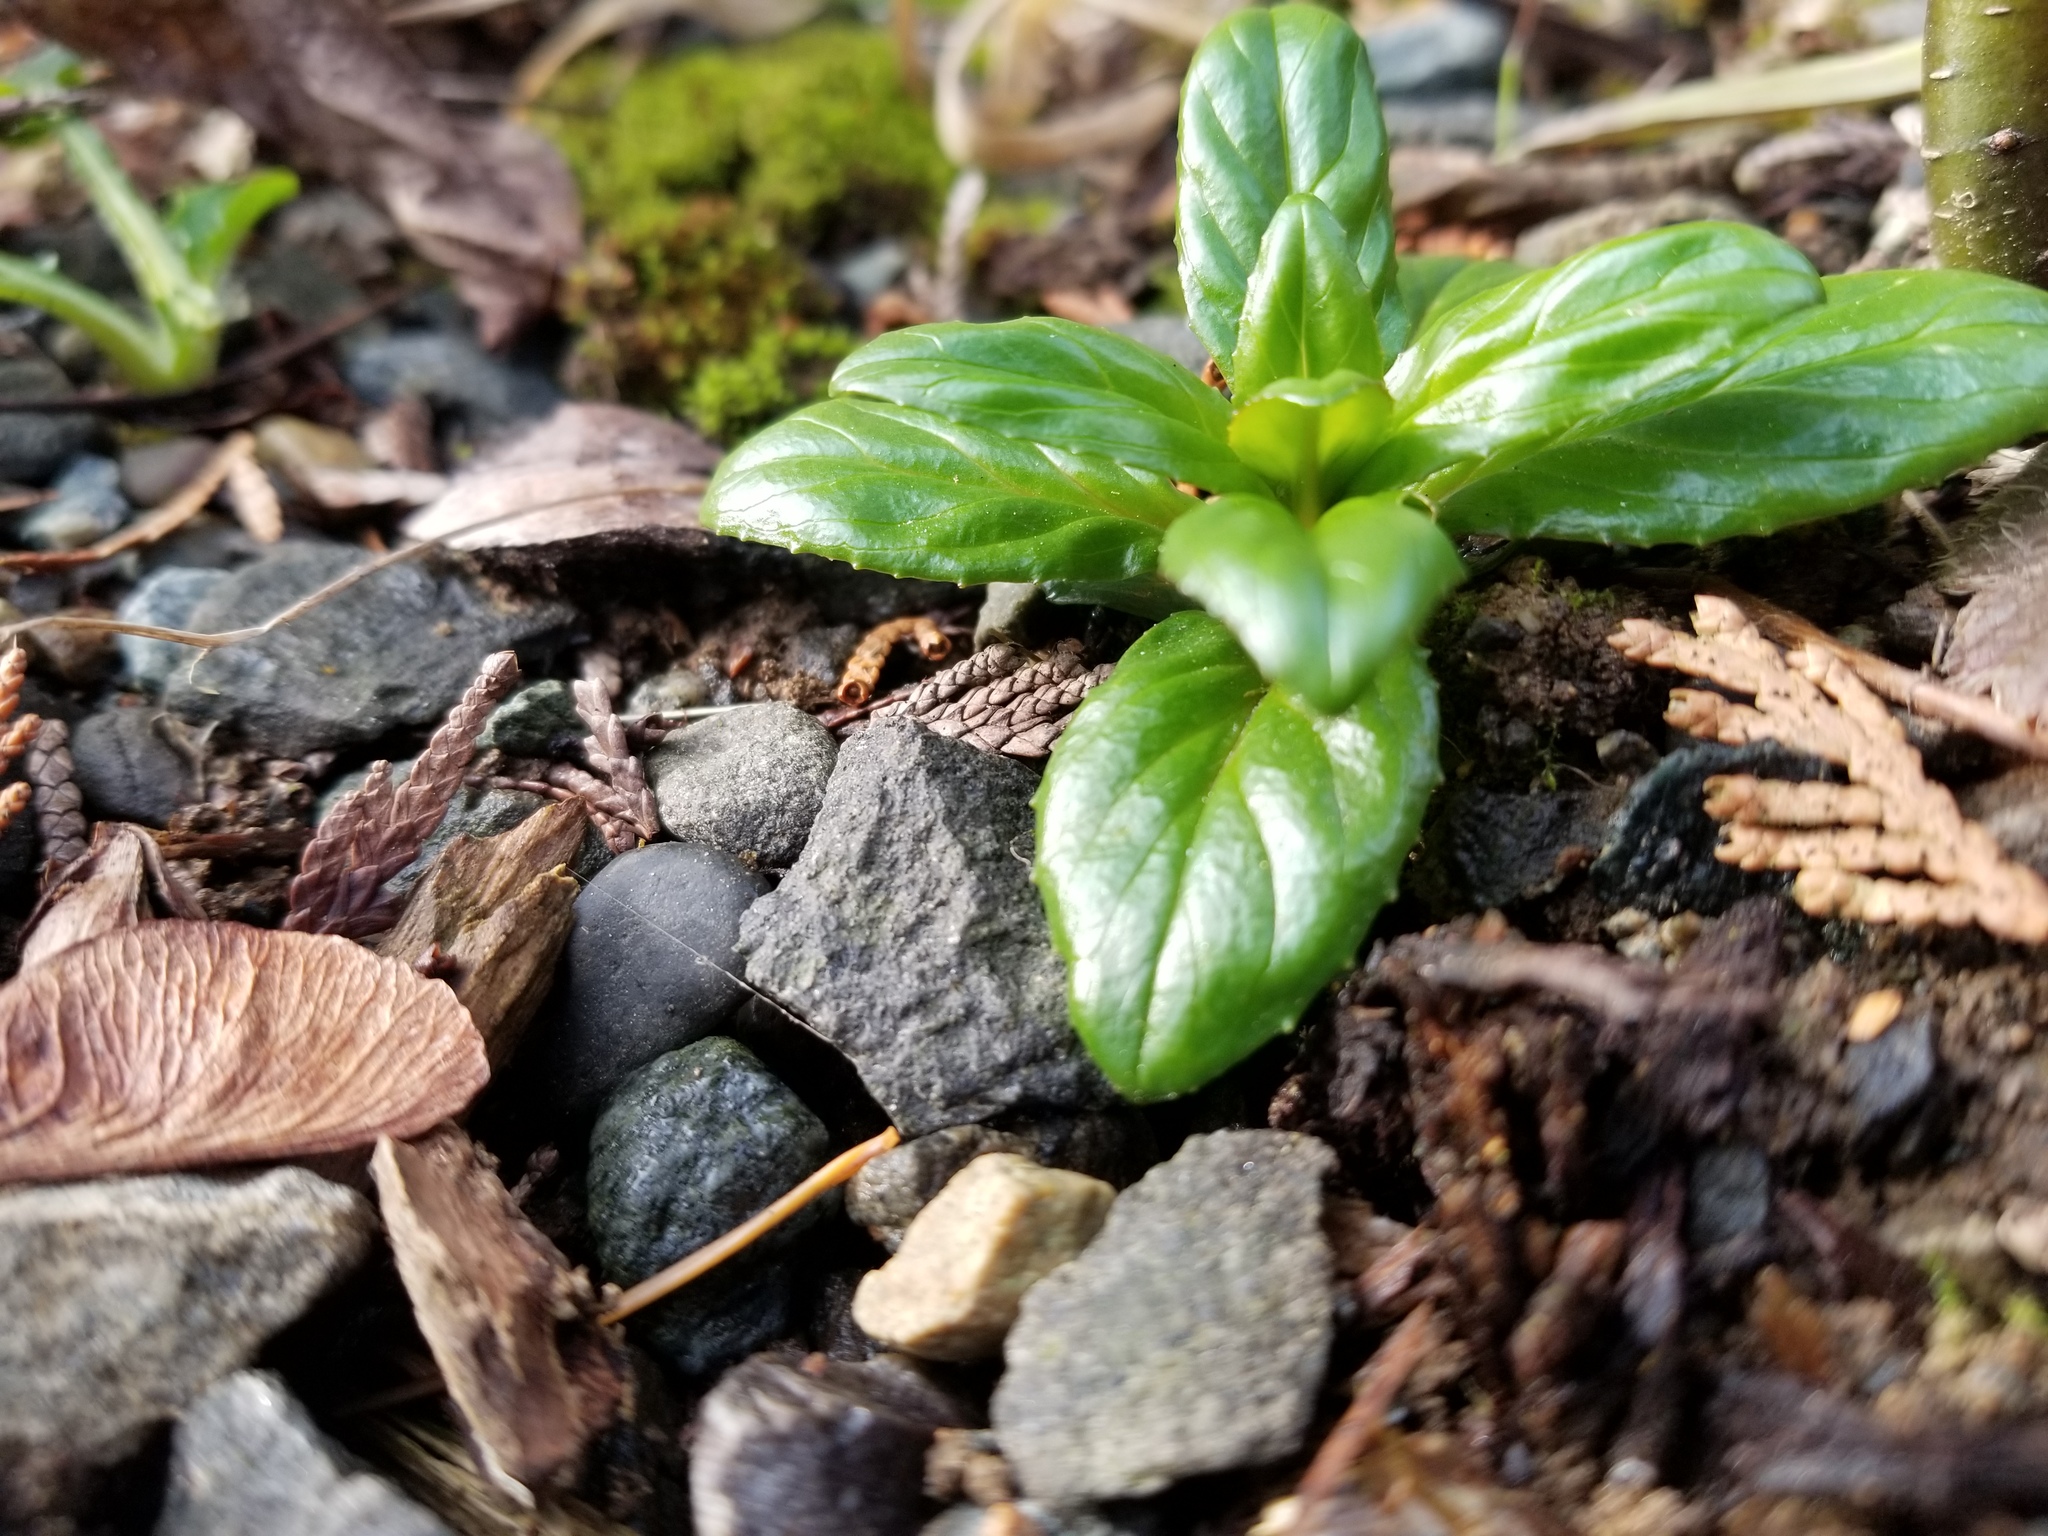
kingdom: Plantae
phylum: Tracheophyta
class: Magnoliopsida
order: Myrtales
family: Onagraceae
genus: Epilobium
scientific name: Epilobium ciliatum
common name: American willowherb
